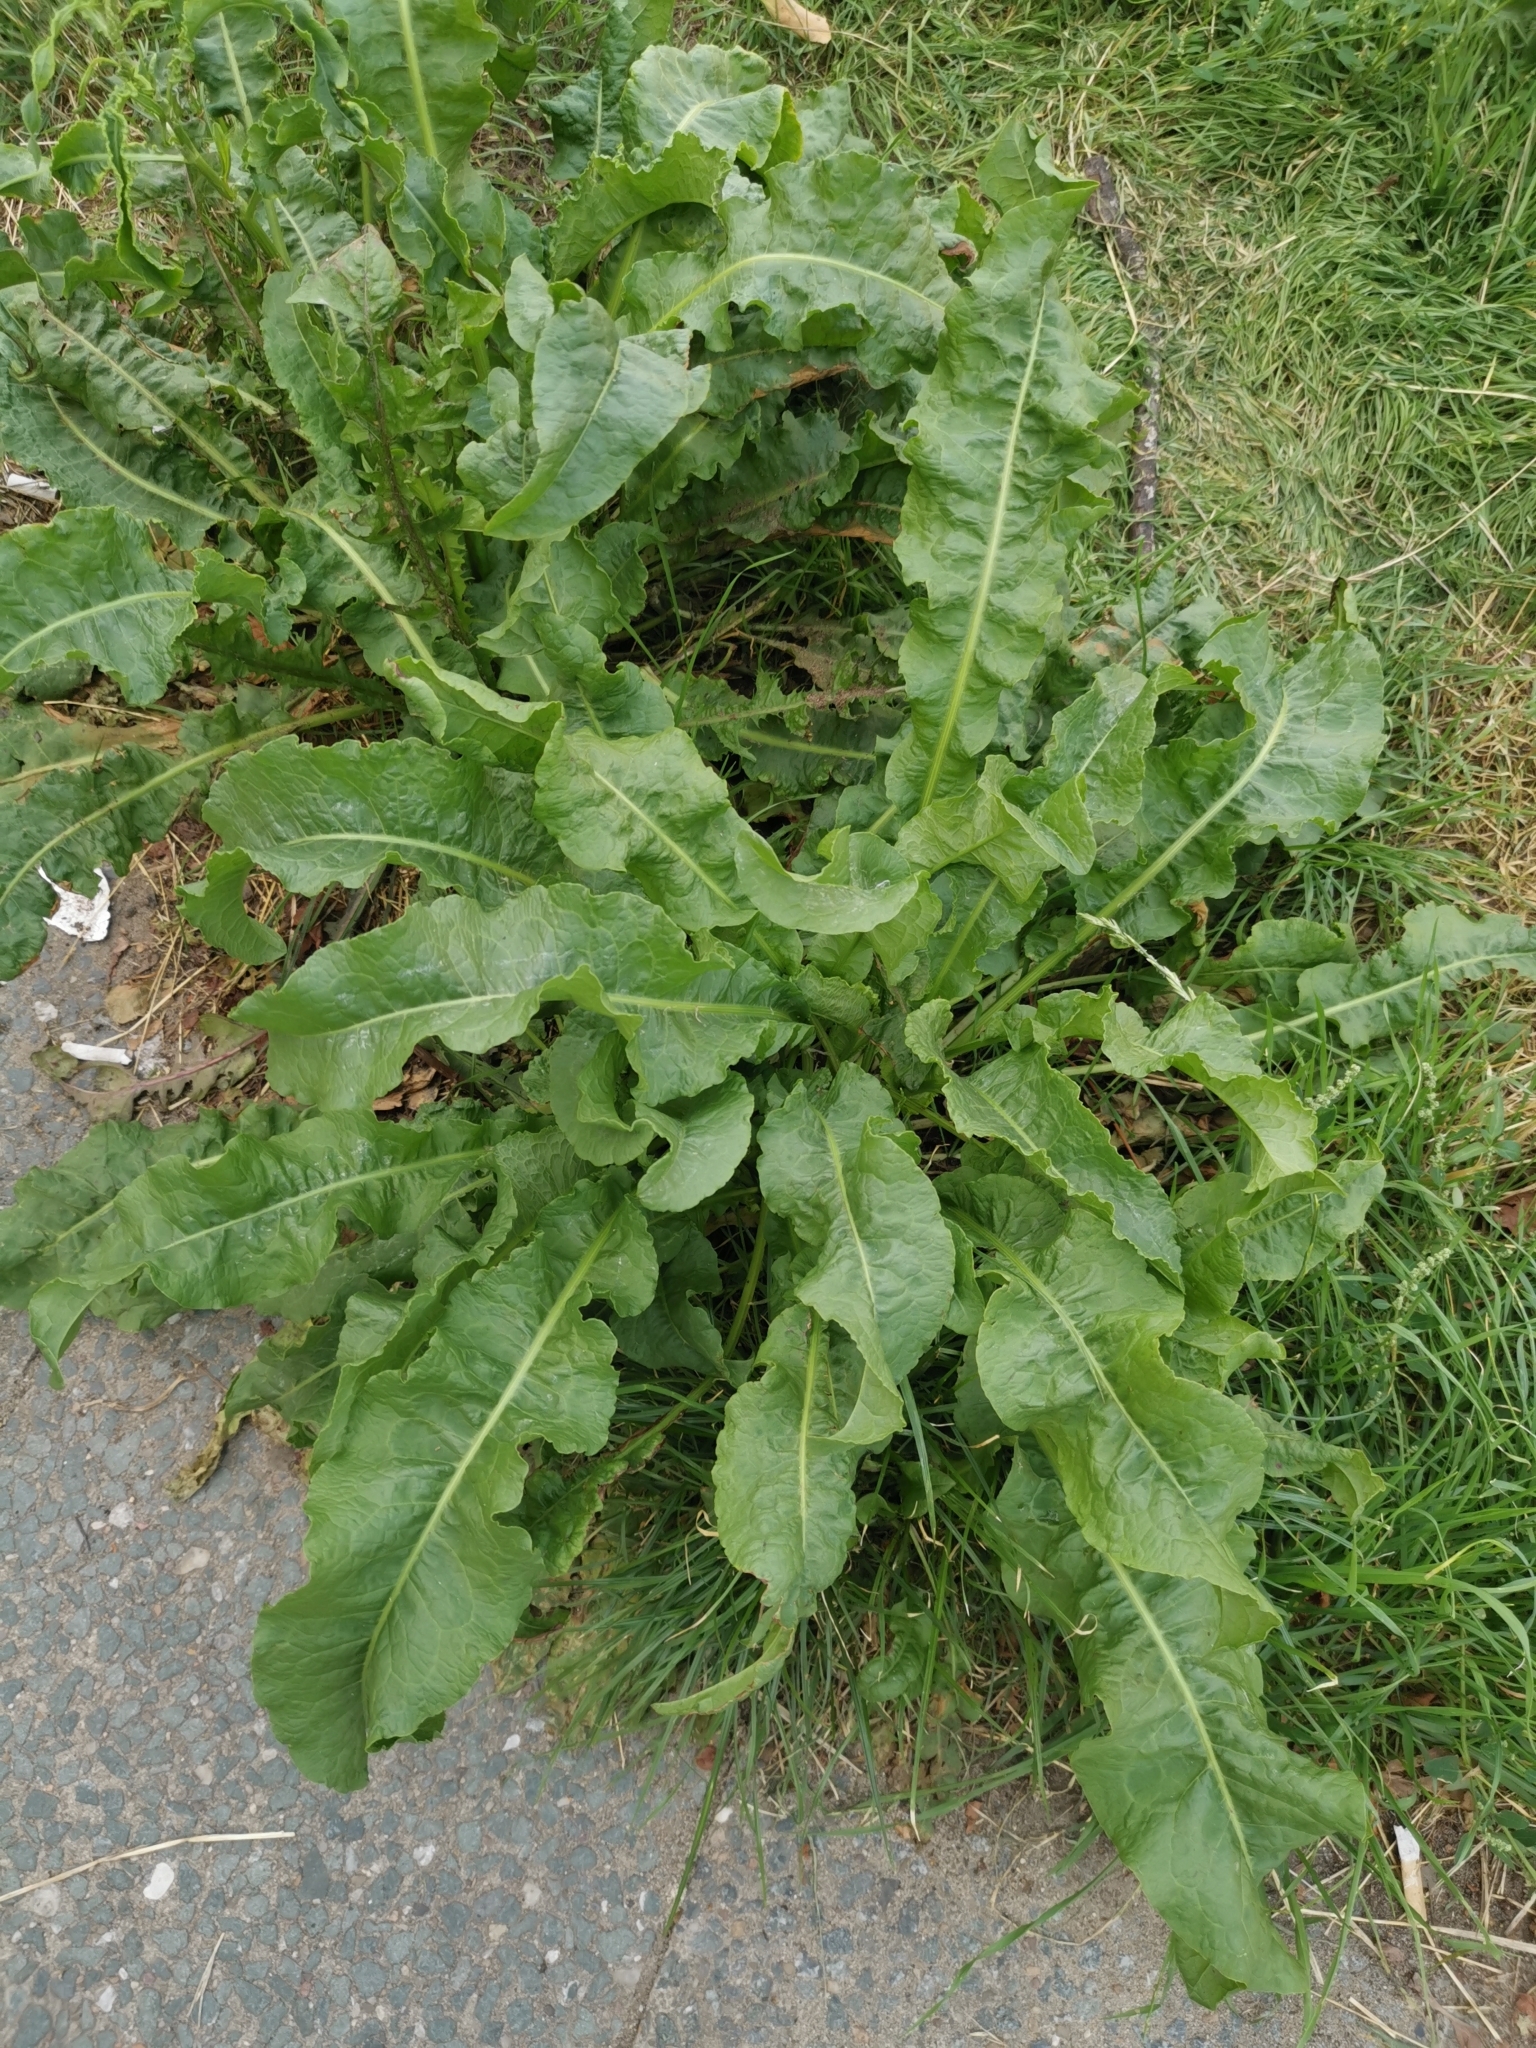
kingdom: Plantae
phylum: Tracheophyta
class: Magnoliopsida
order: Caryophyllales
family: Polygonaceae
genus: Rumex
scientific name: Rumex crispus
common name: Curled dock
